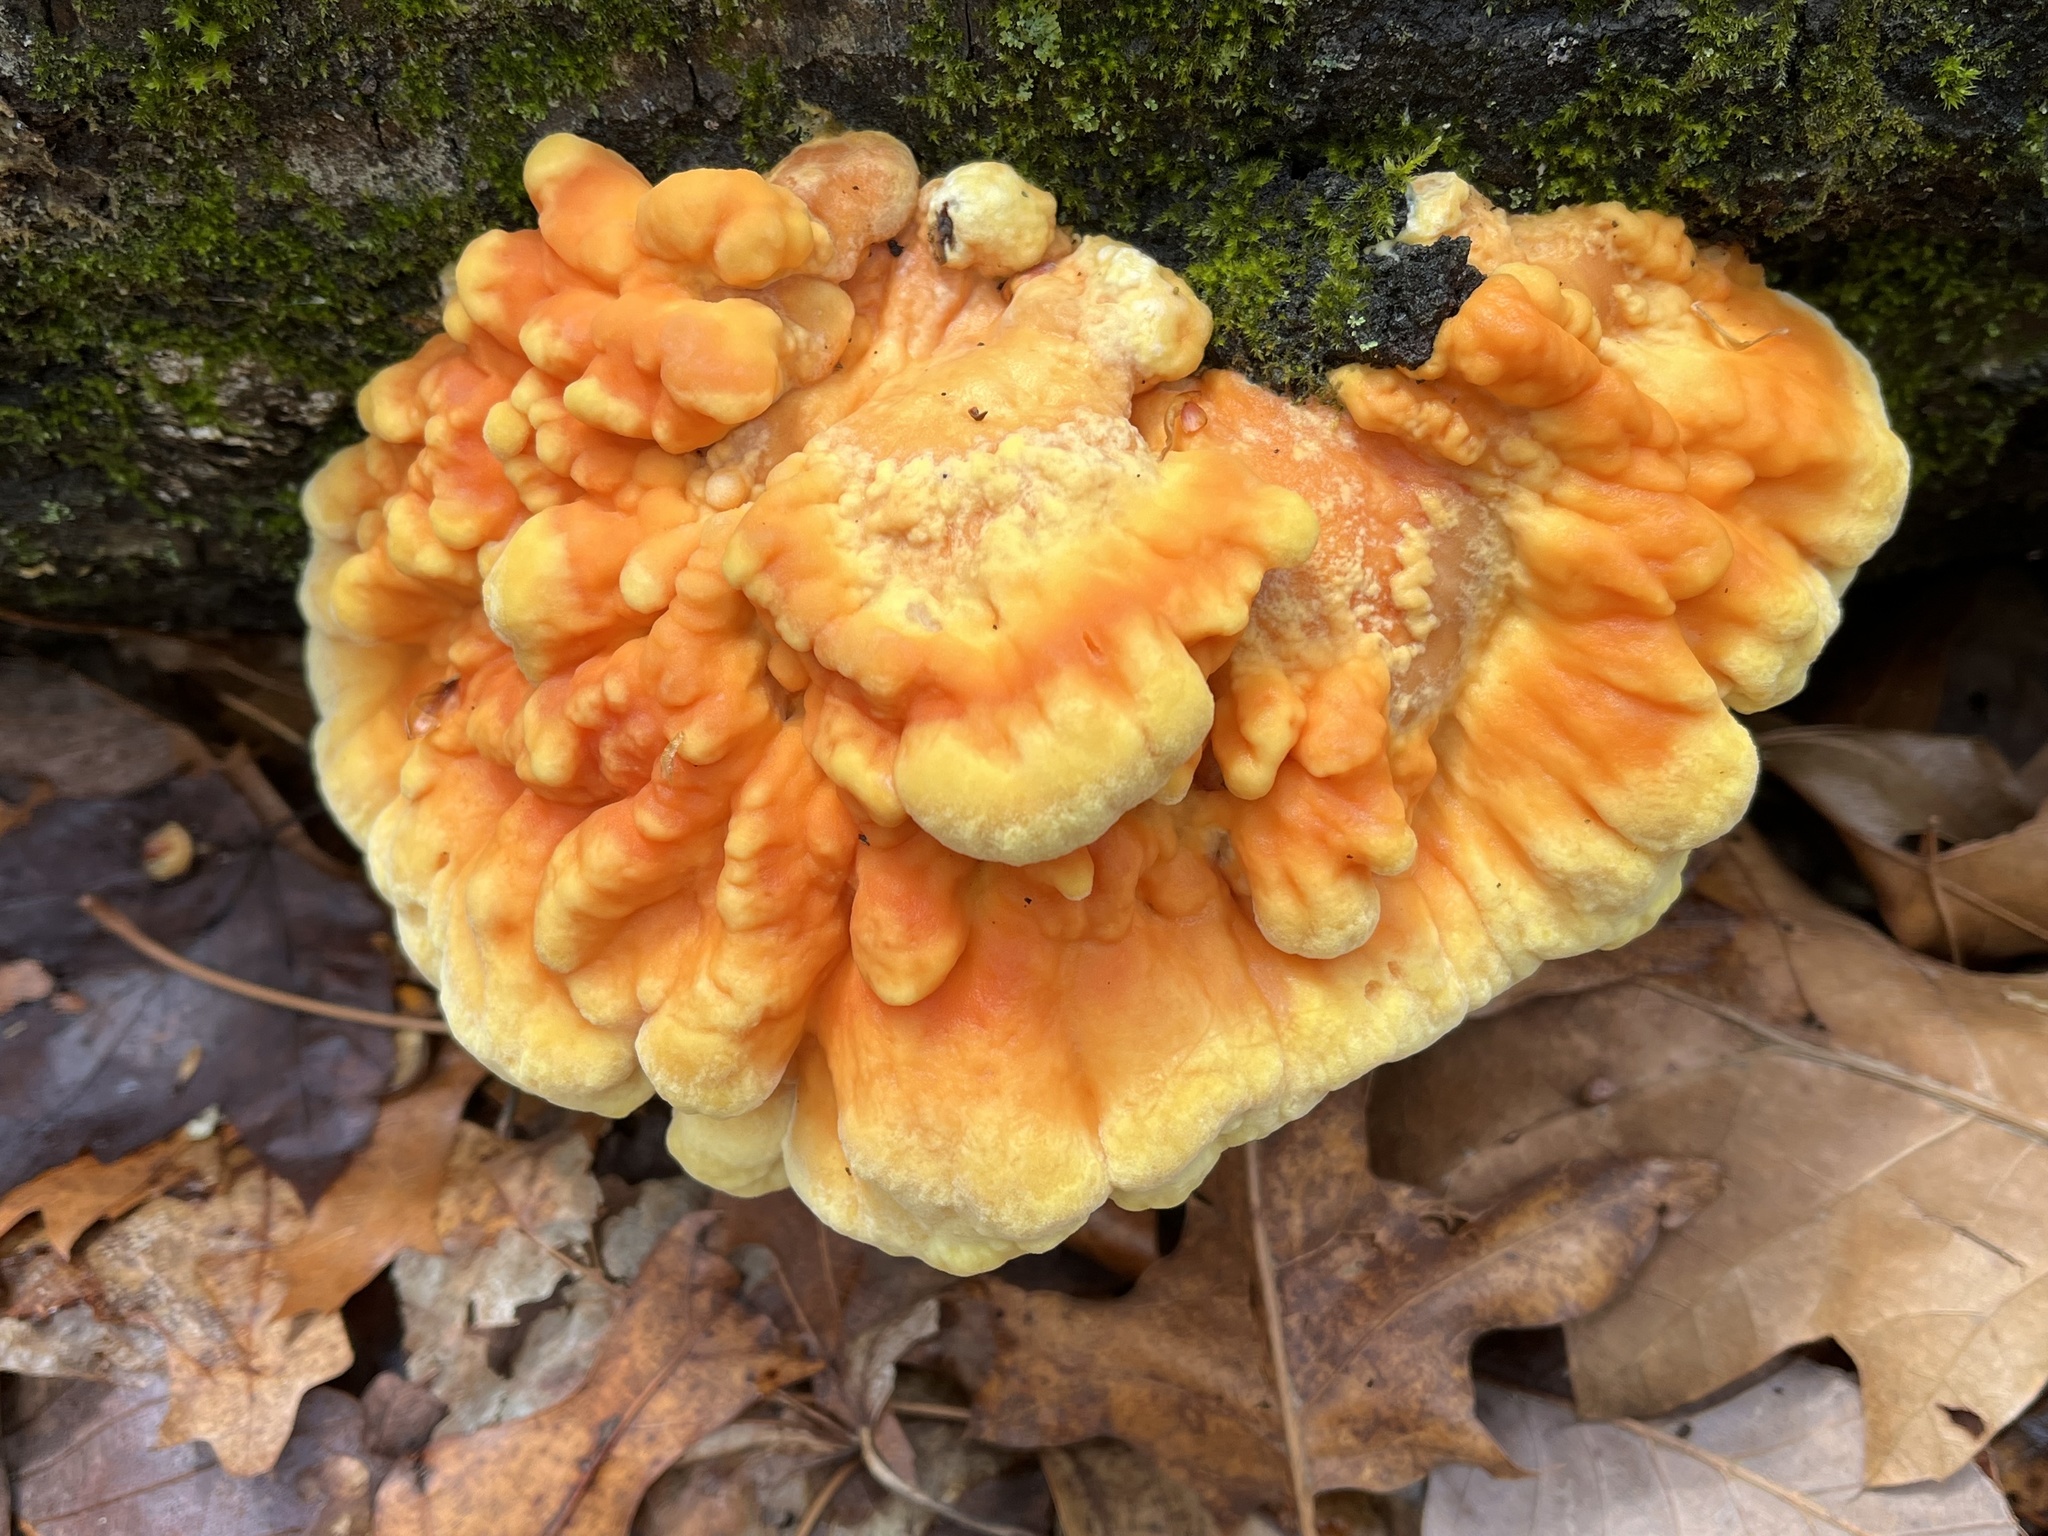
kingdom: Fungi
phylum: Basidiomycota
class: Agaricomycetes
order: Polyporales
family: Laetiporaceae
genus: Laetiporus
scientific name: Laetiporus sulphureus
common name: Chicken of the woods
